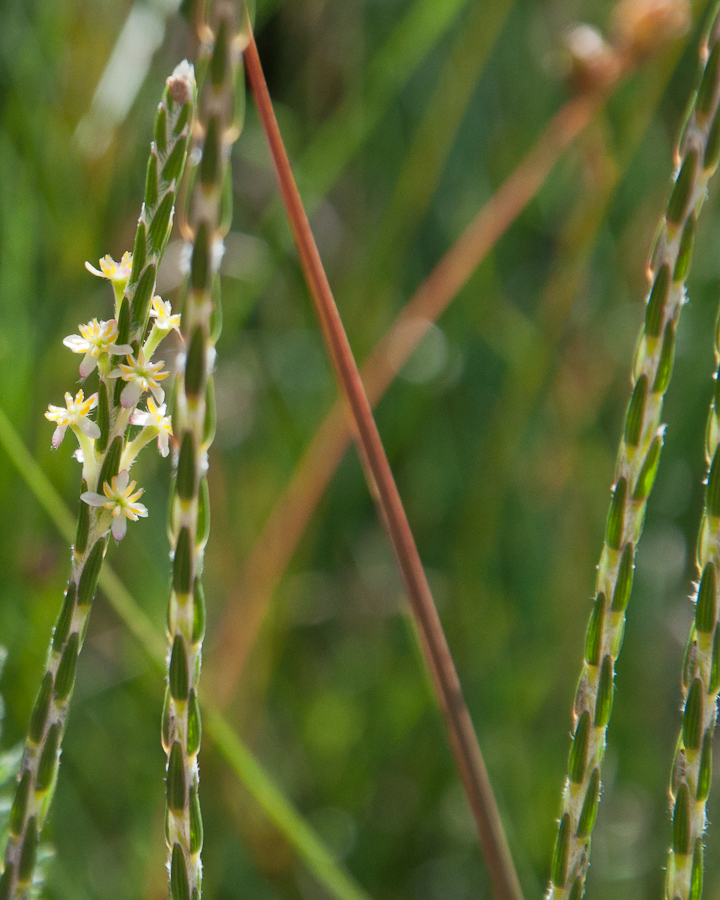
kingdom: Plantae
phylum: Tracheophyta
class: Magnoliopsida
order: Malvales
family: Thymelaeaceae
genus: Struthiola
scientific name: Struthiola ciliata
